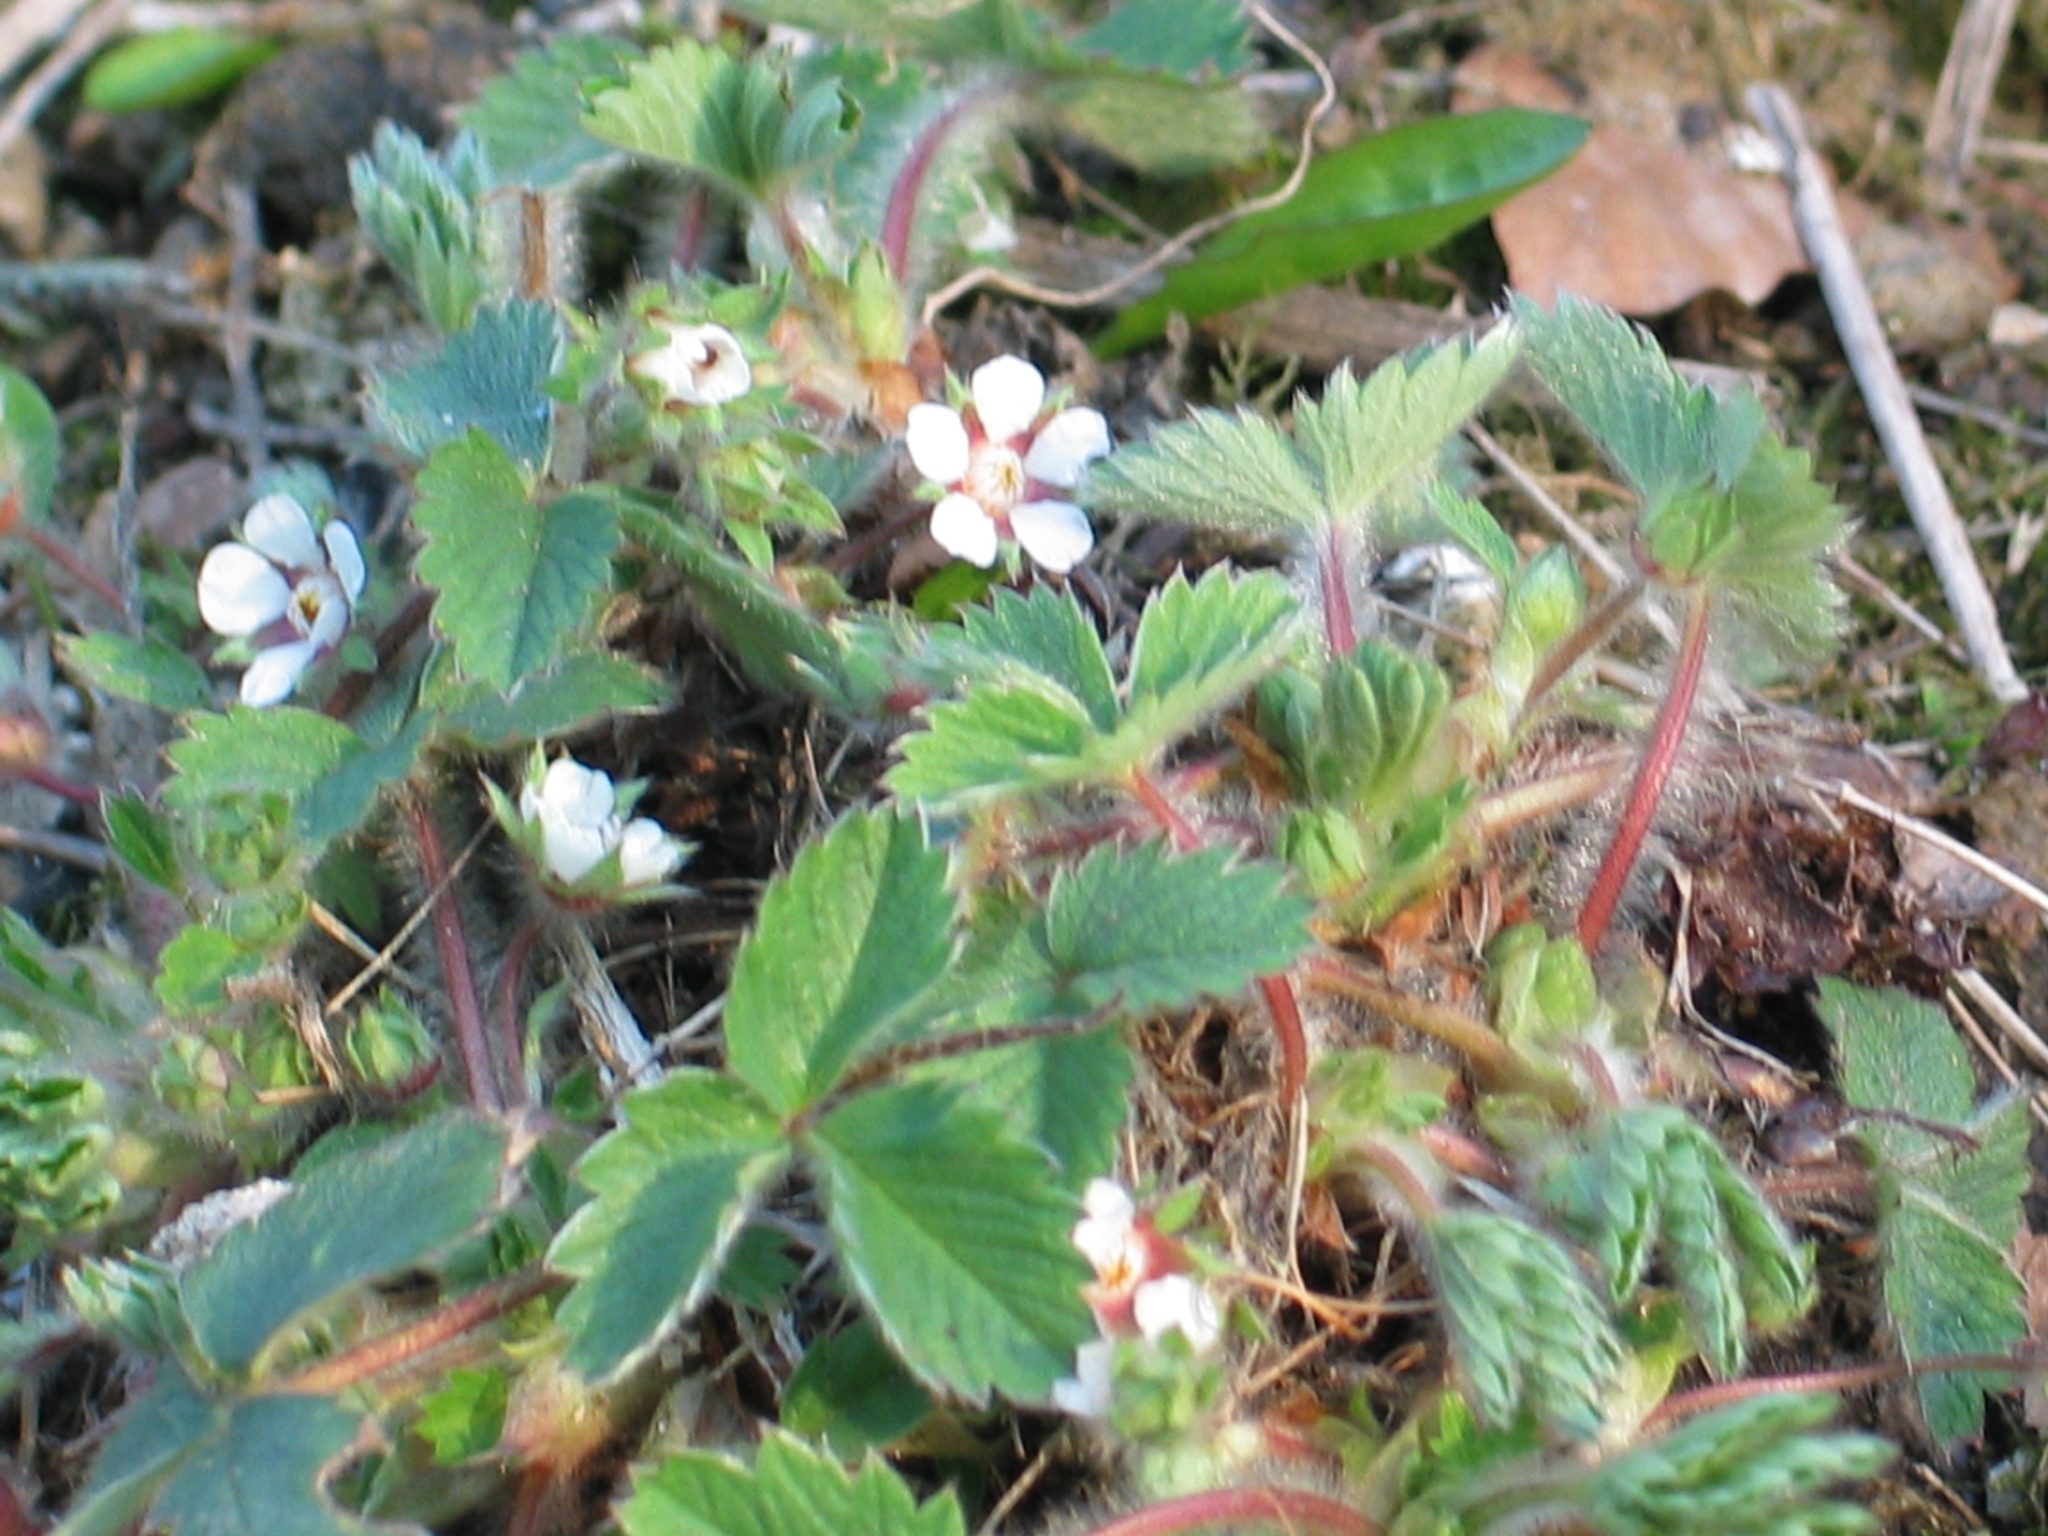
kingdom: Plantae
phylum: Tracheophyta
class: Magnoliopsida
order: Rosales
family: Rosaceae
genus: Potentilla
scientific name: Potentilla micrantha
